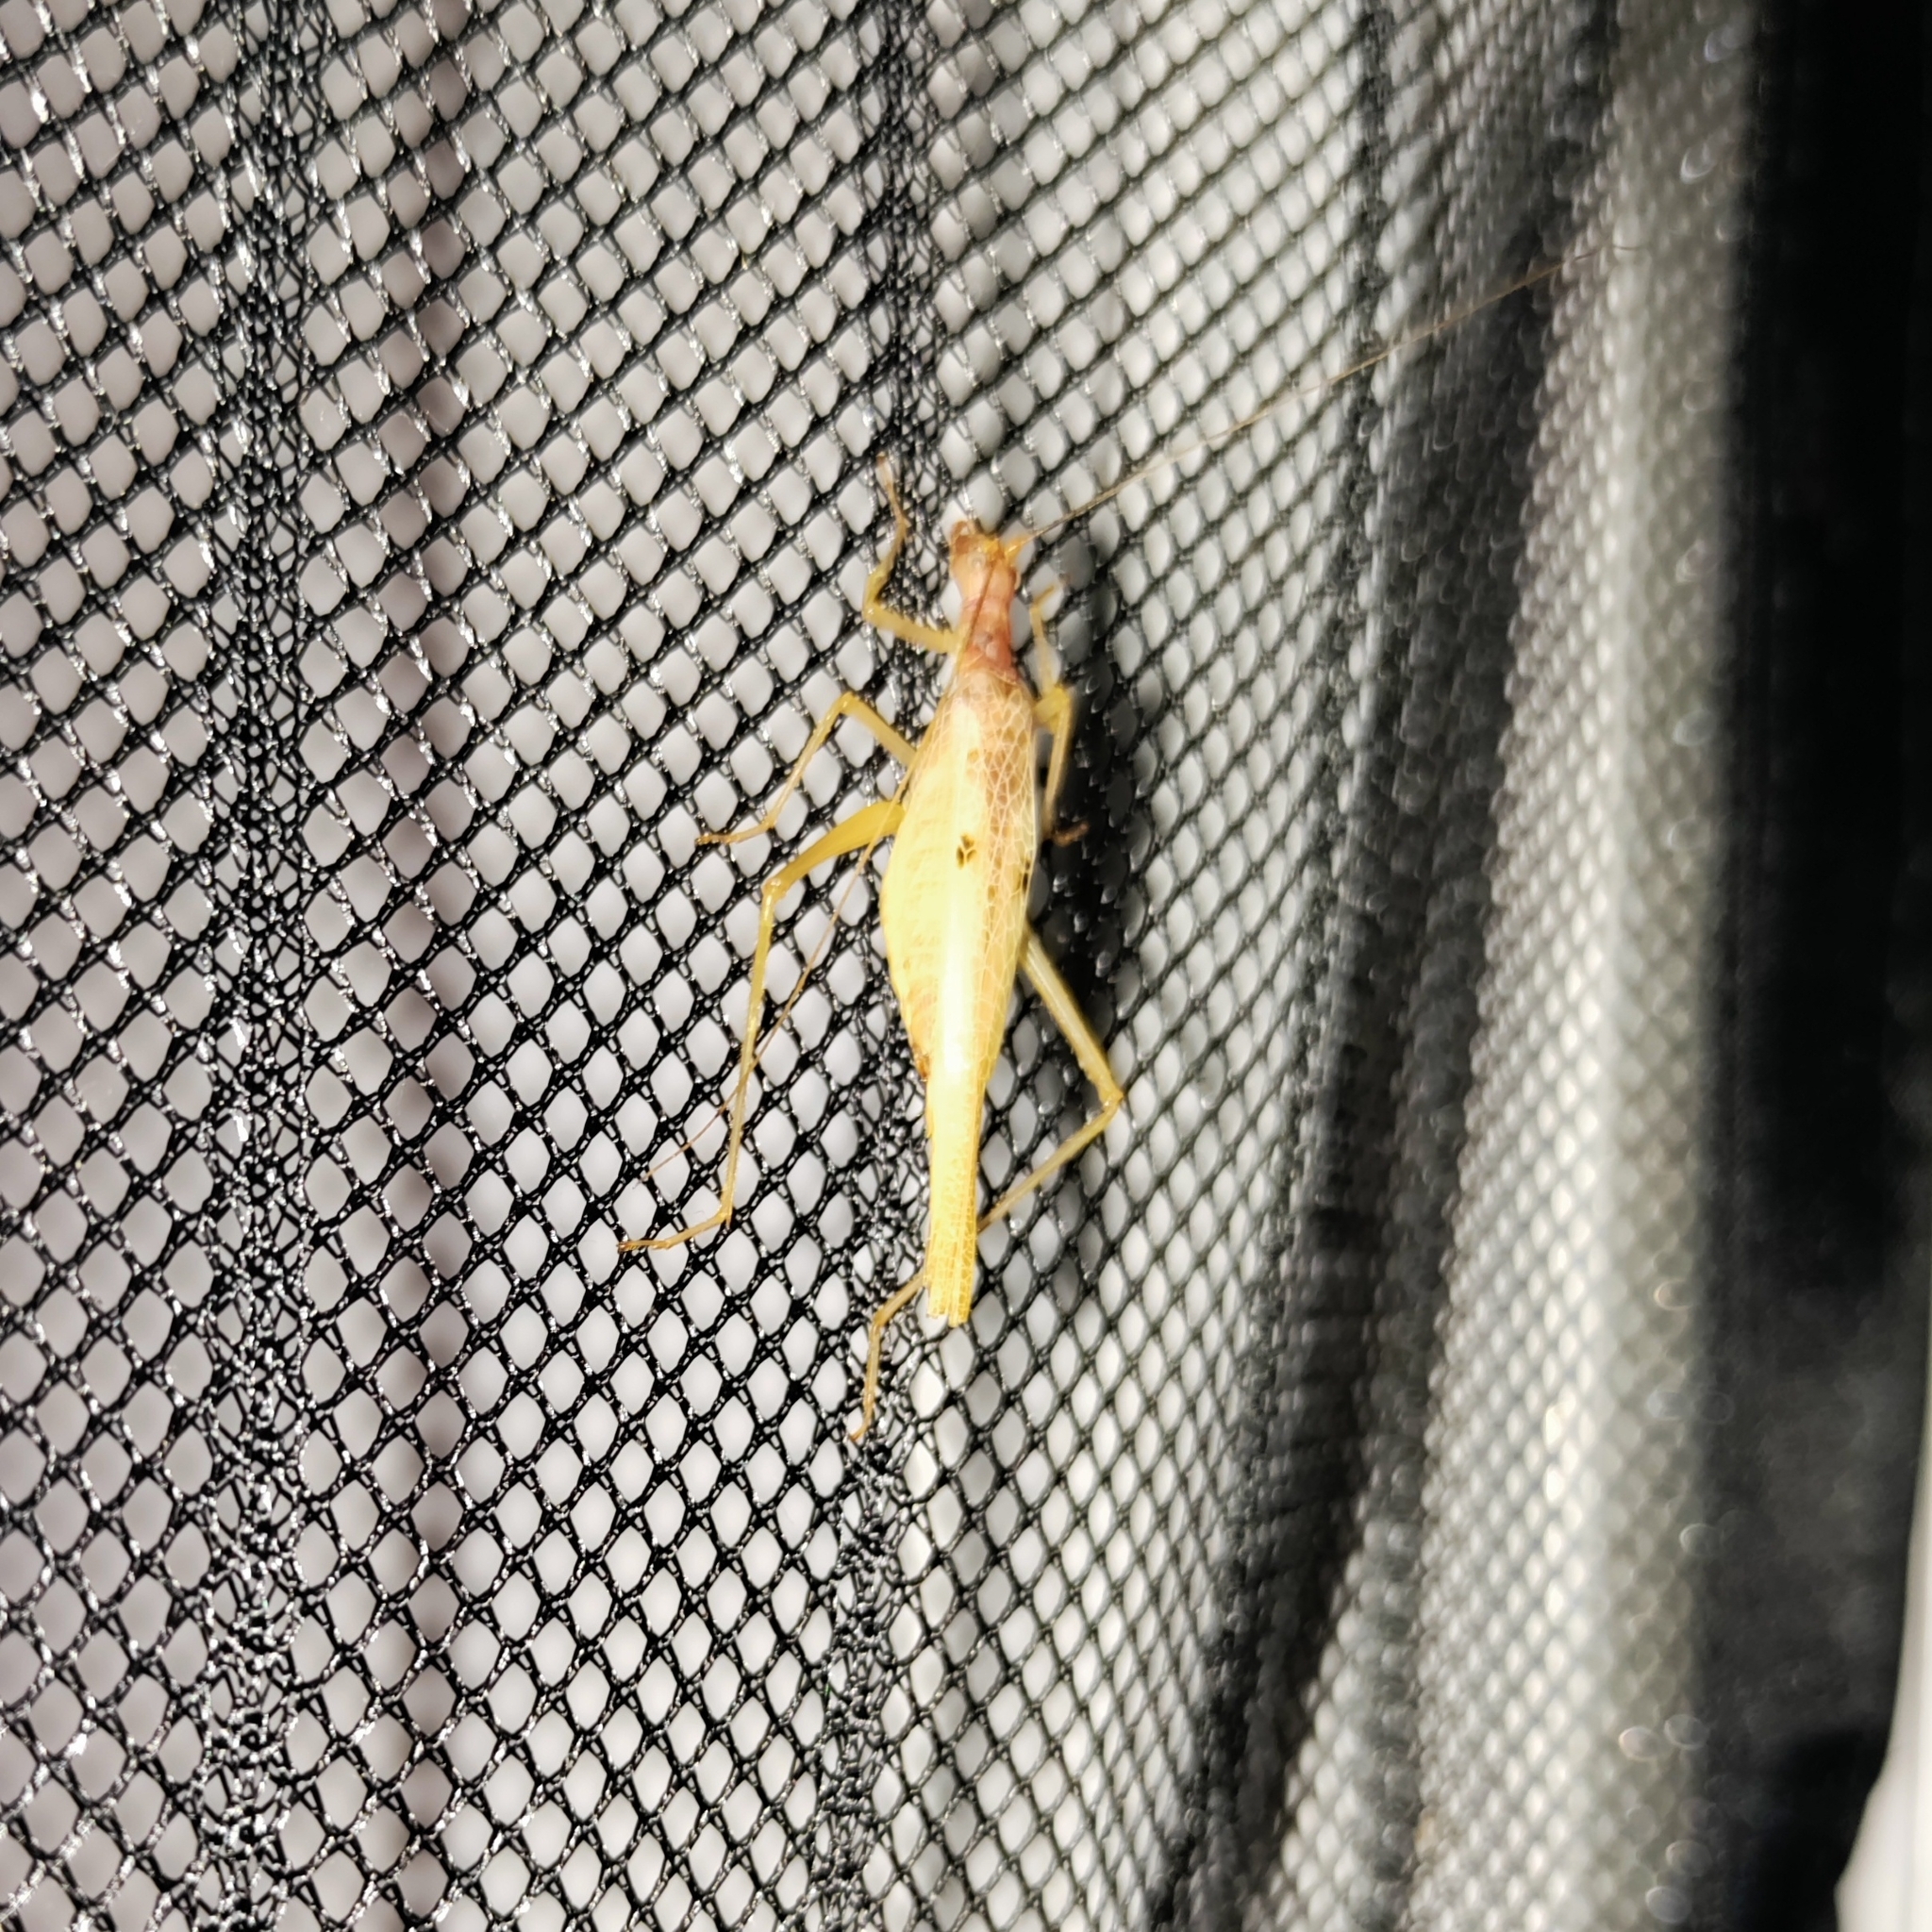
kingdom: Animalia
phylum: Arthropoda
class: Insecta
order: Orthoptera
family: Gryllidae
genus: Neoxabea
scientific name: Neoxabea bipunctata
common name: Two-spotted tree cricket
